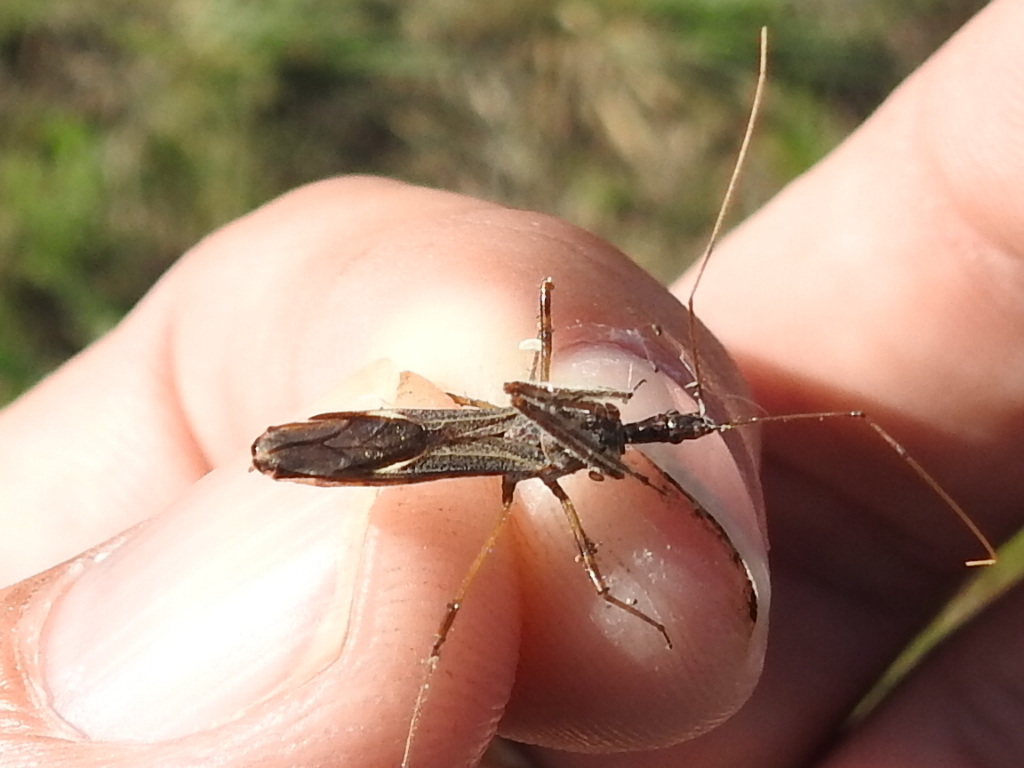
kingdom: Animalia
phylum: Arthropoda
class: Insecta
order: Hemiptera
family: Reduviidae
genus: Zelus
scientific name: Zelus tetracanthus
